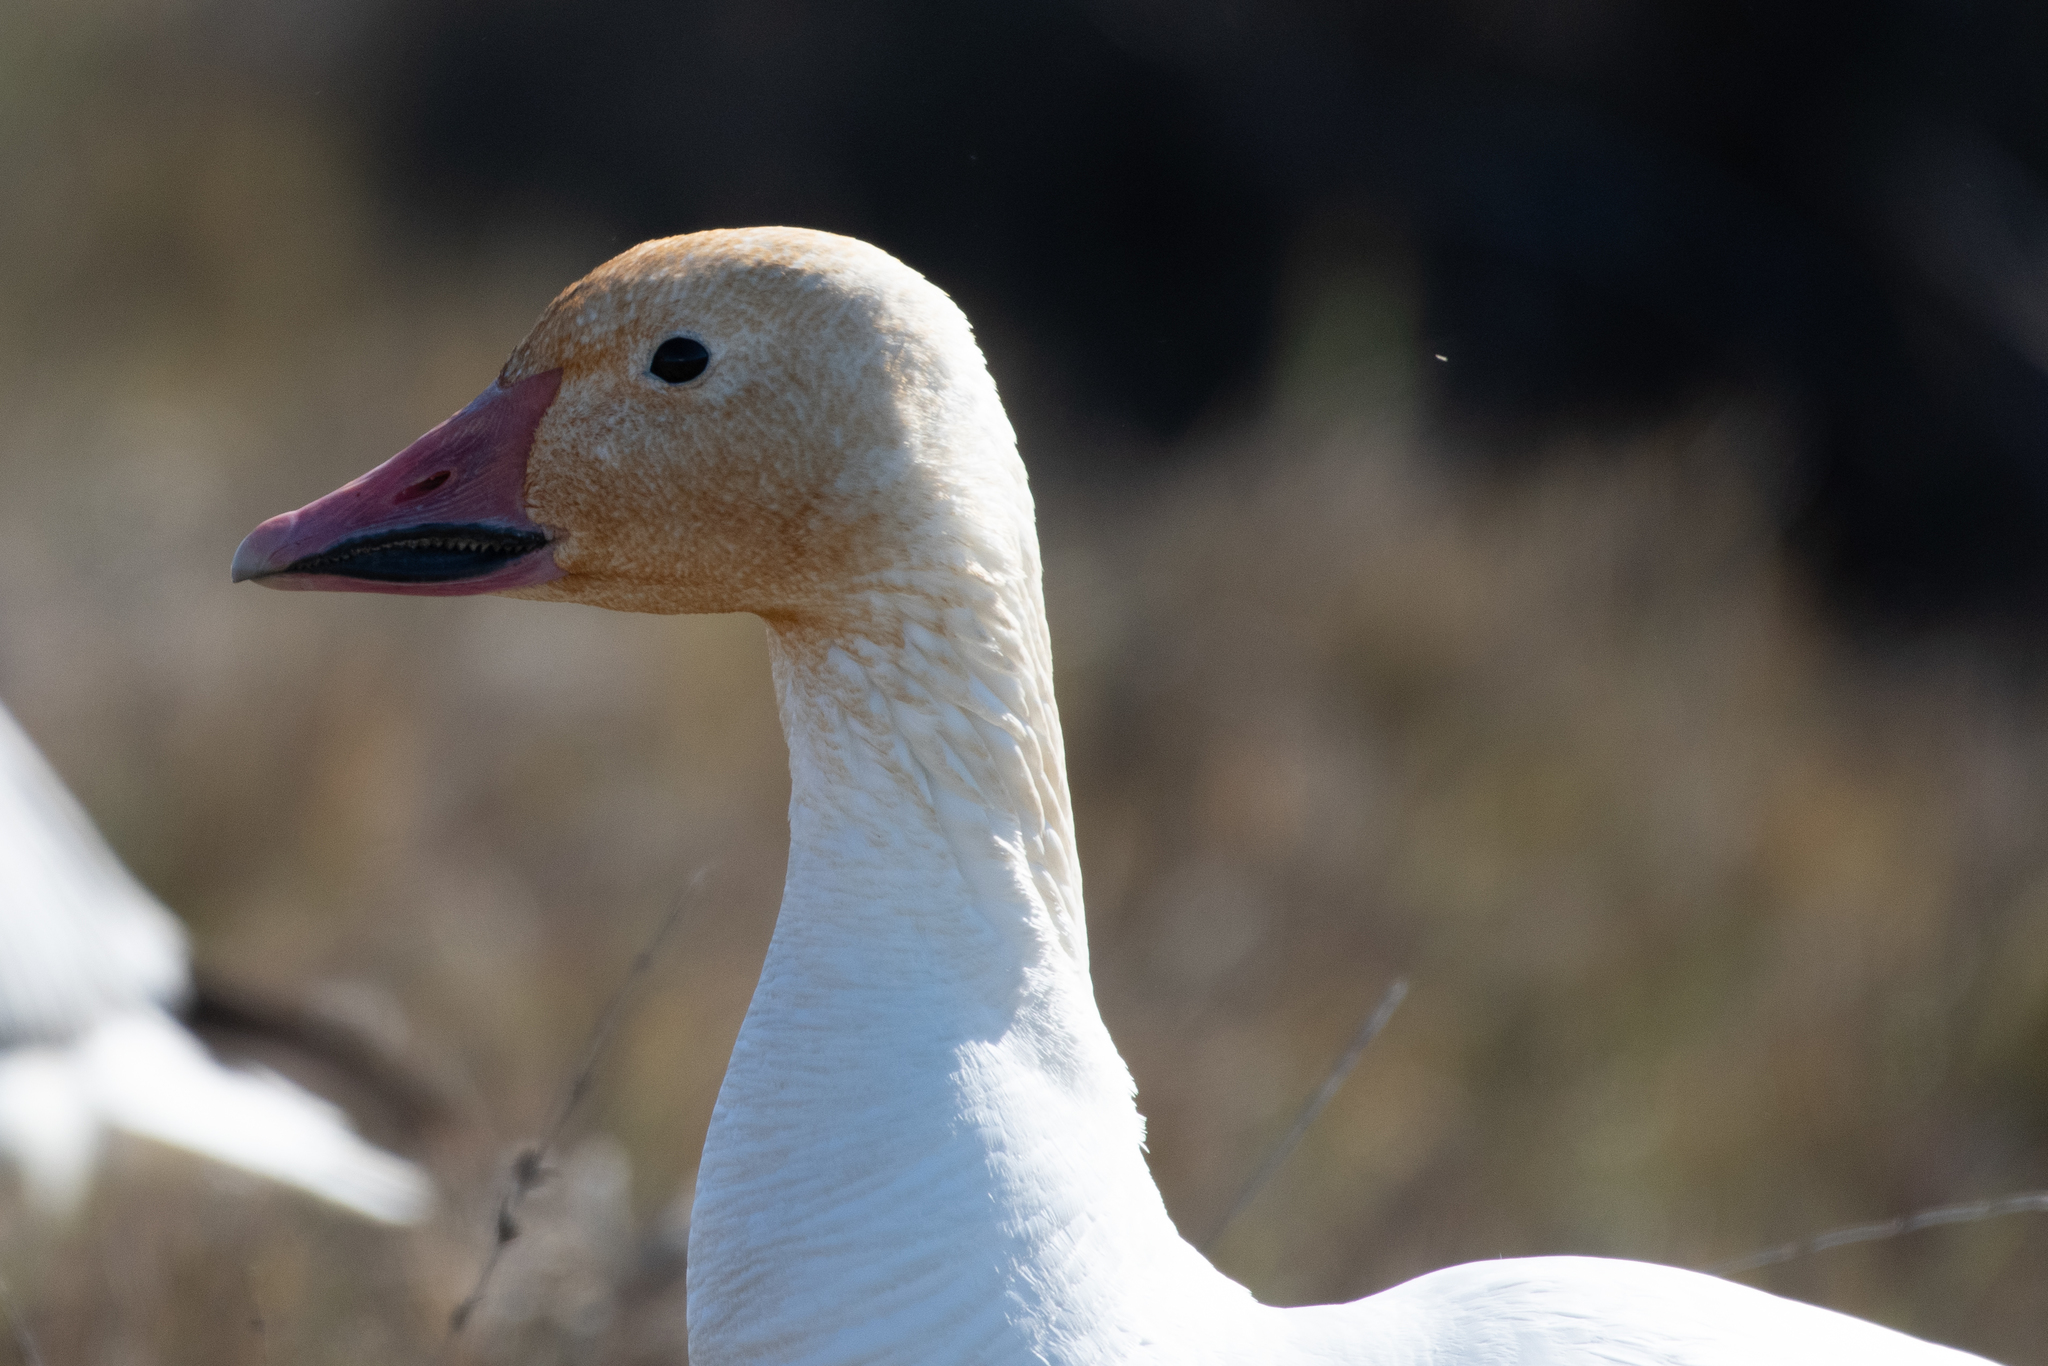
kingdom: Animalia
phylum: Chordata
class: Aves
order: Anseriformes
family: Anatidae
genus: Anser
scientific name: Anser caerulescens
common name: Snow goose
